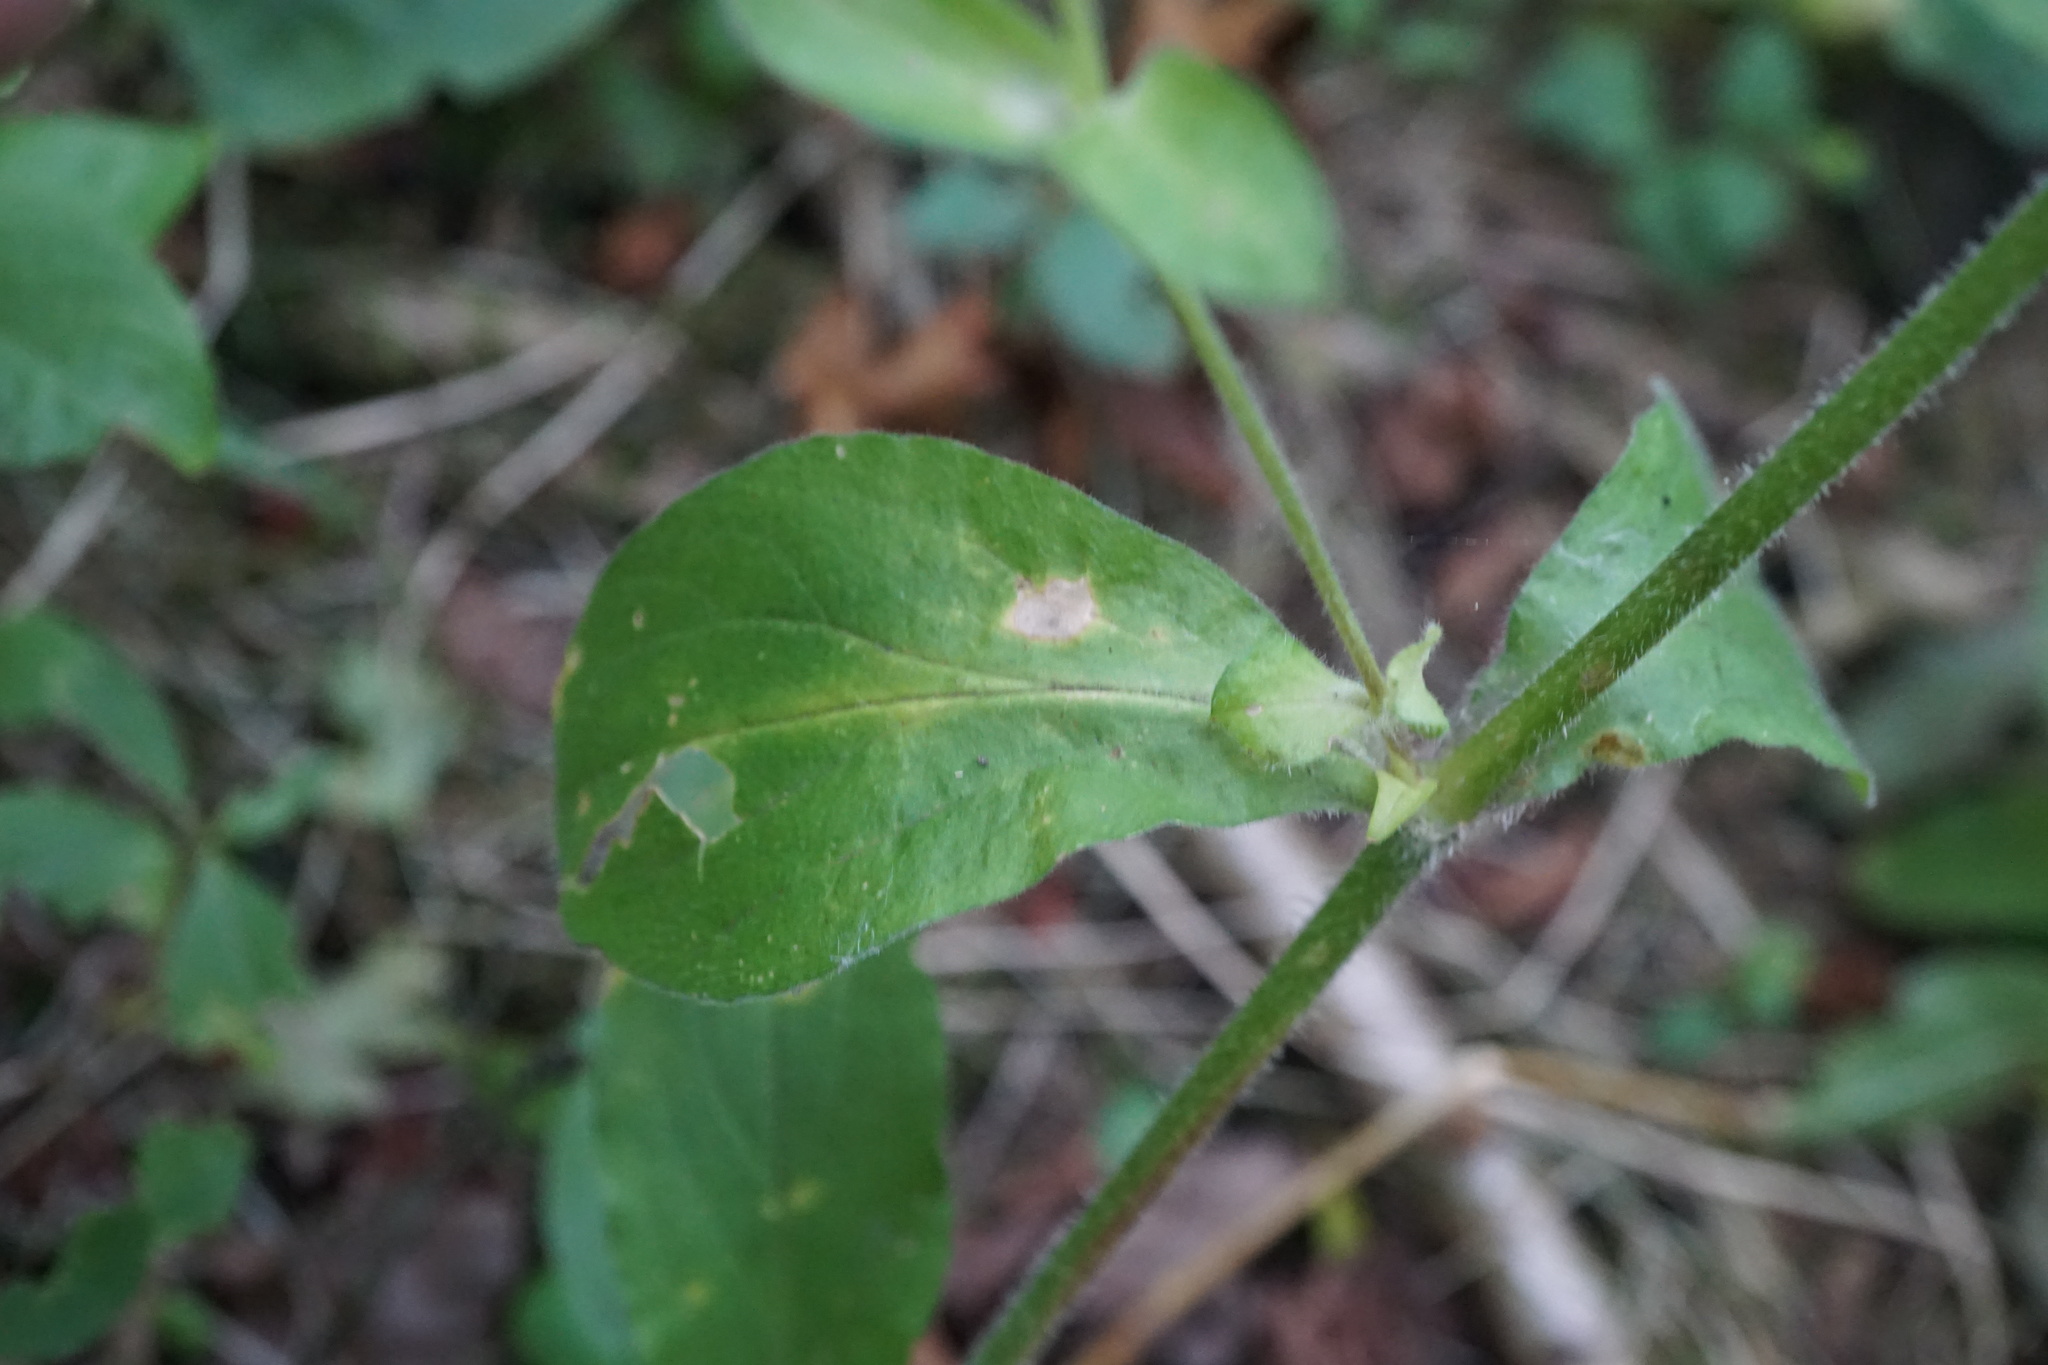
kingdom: Plantae
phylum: Tracheophyta
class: Magnoliopsida
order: Caryophyllales
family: Caryophyllaceae
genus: Silene
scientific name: Silene dioica
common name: Red campion
